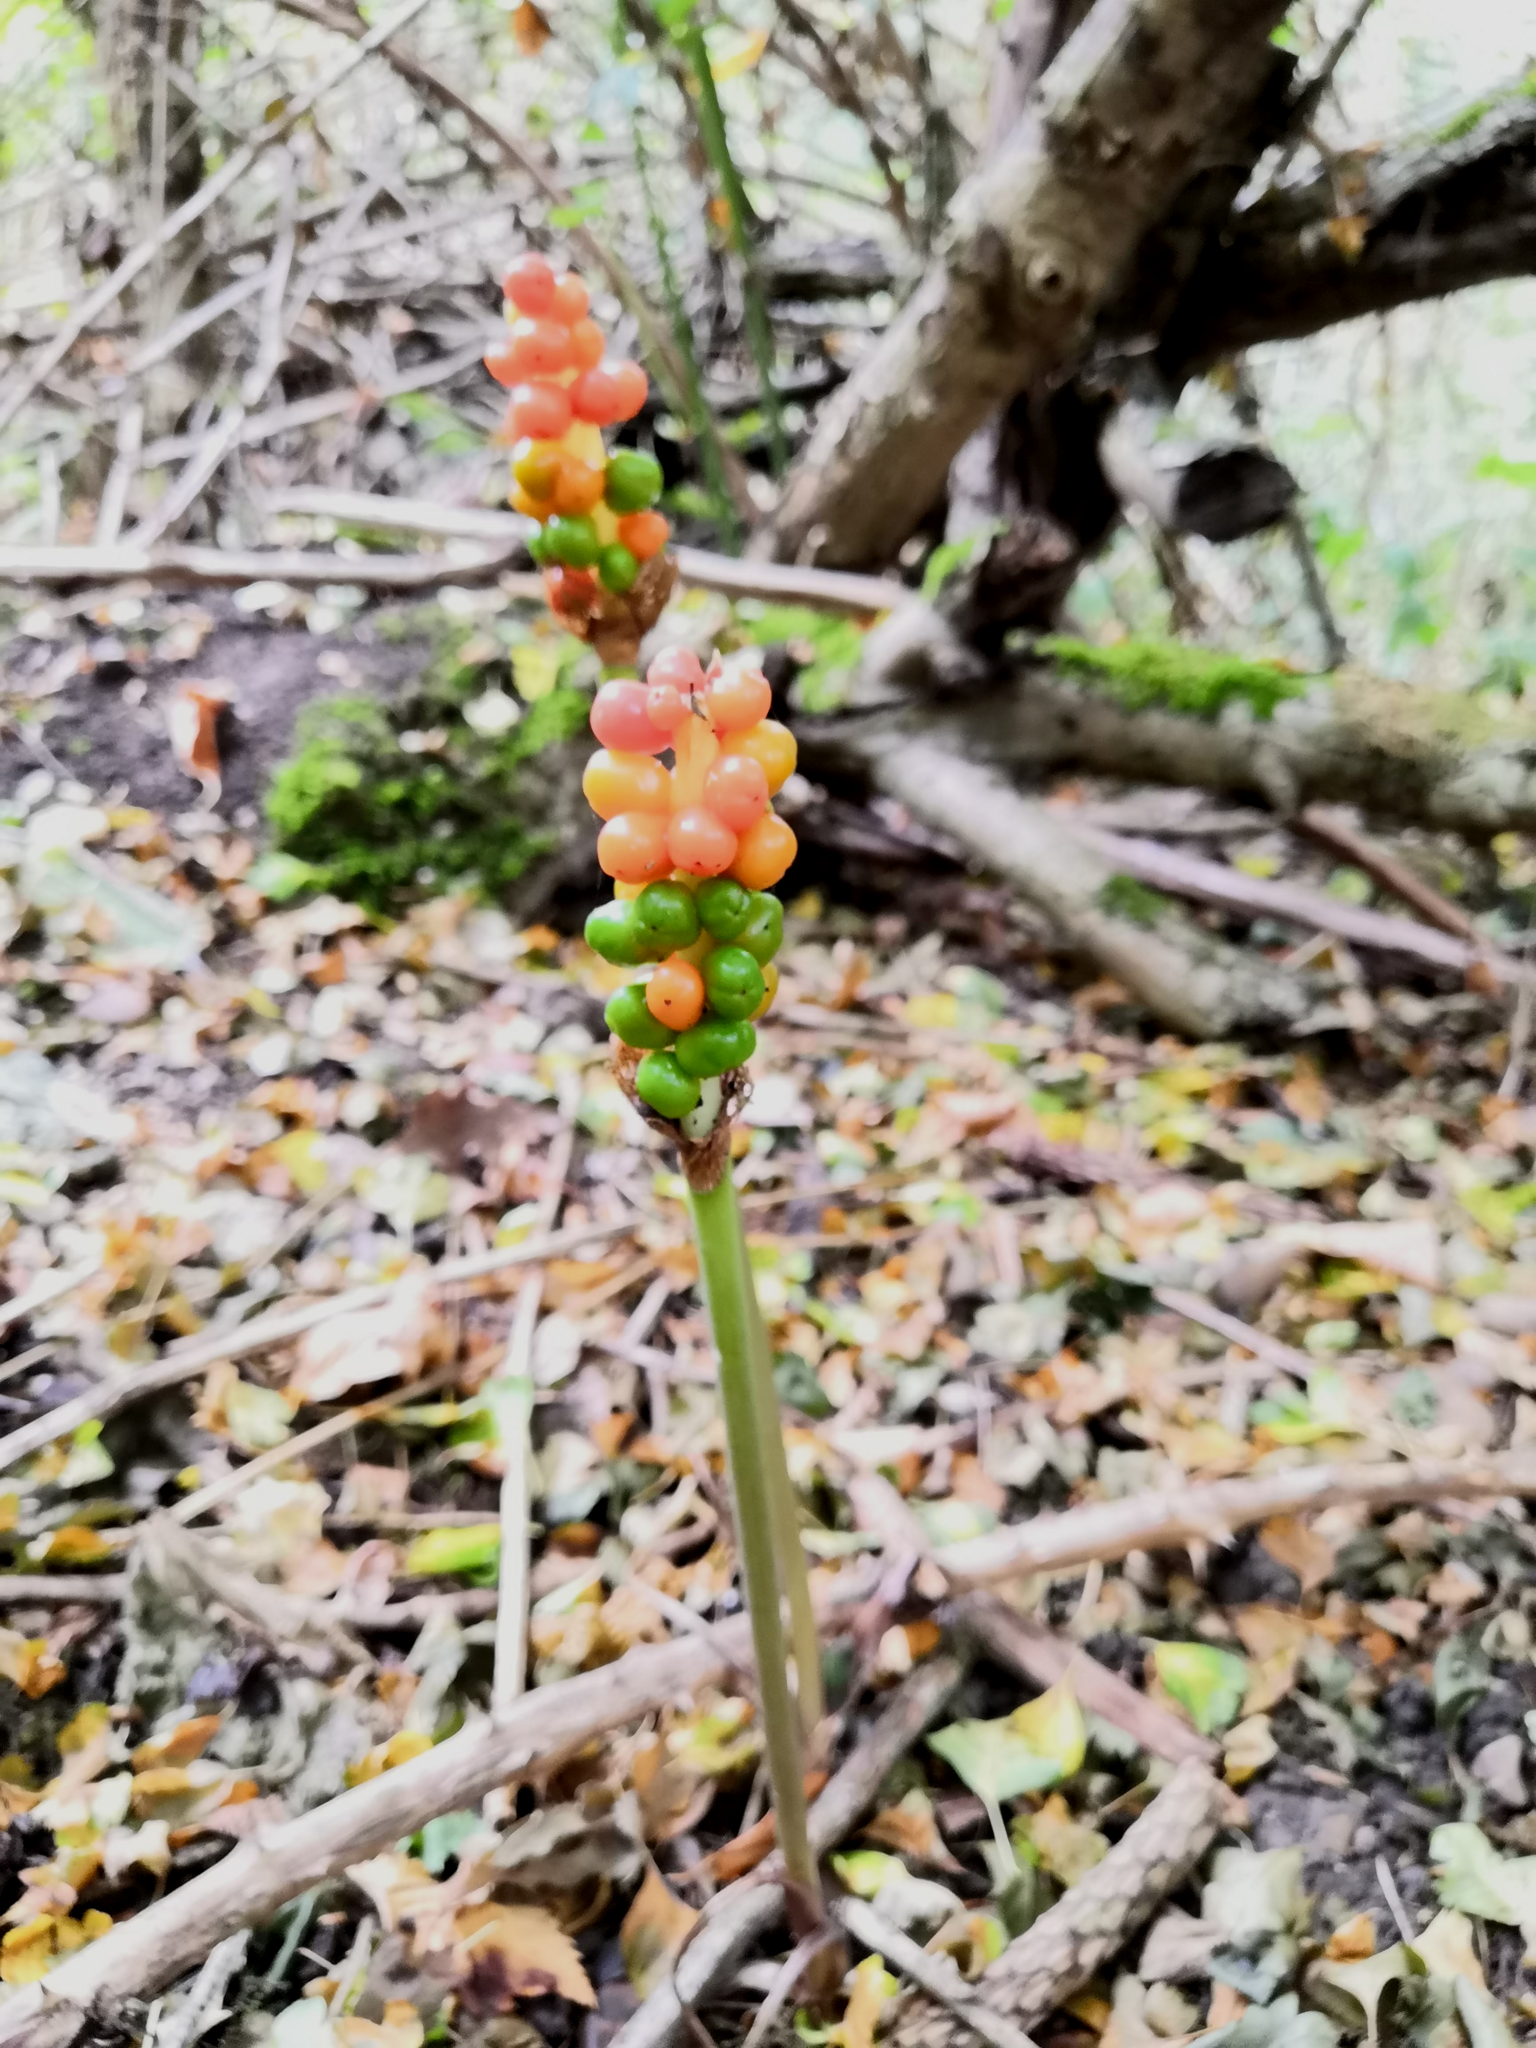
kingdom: Plantae
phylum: Tracheophyta
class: Liliopsida
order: Alismatales
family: Araceae
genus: Arum
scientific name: Arum maculatum
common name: Lords-and-ladies
